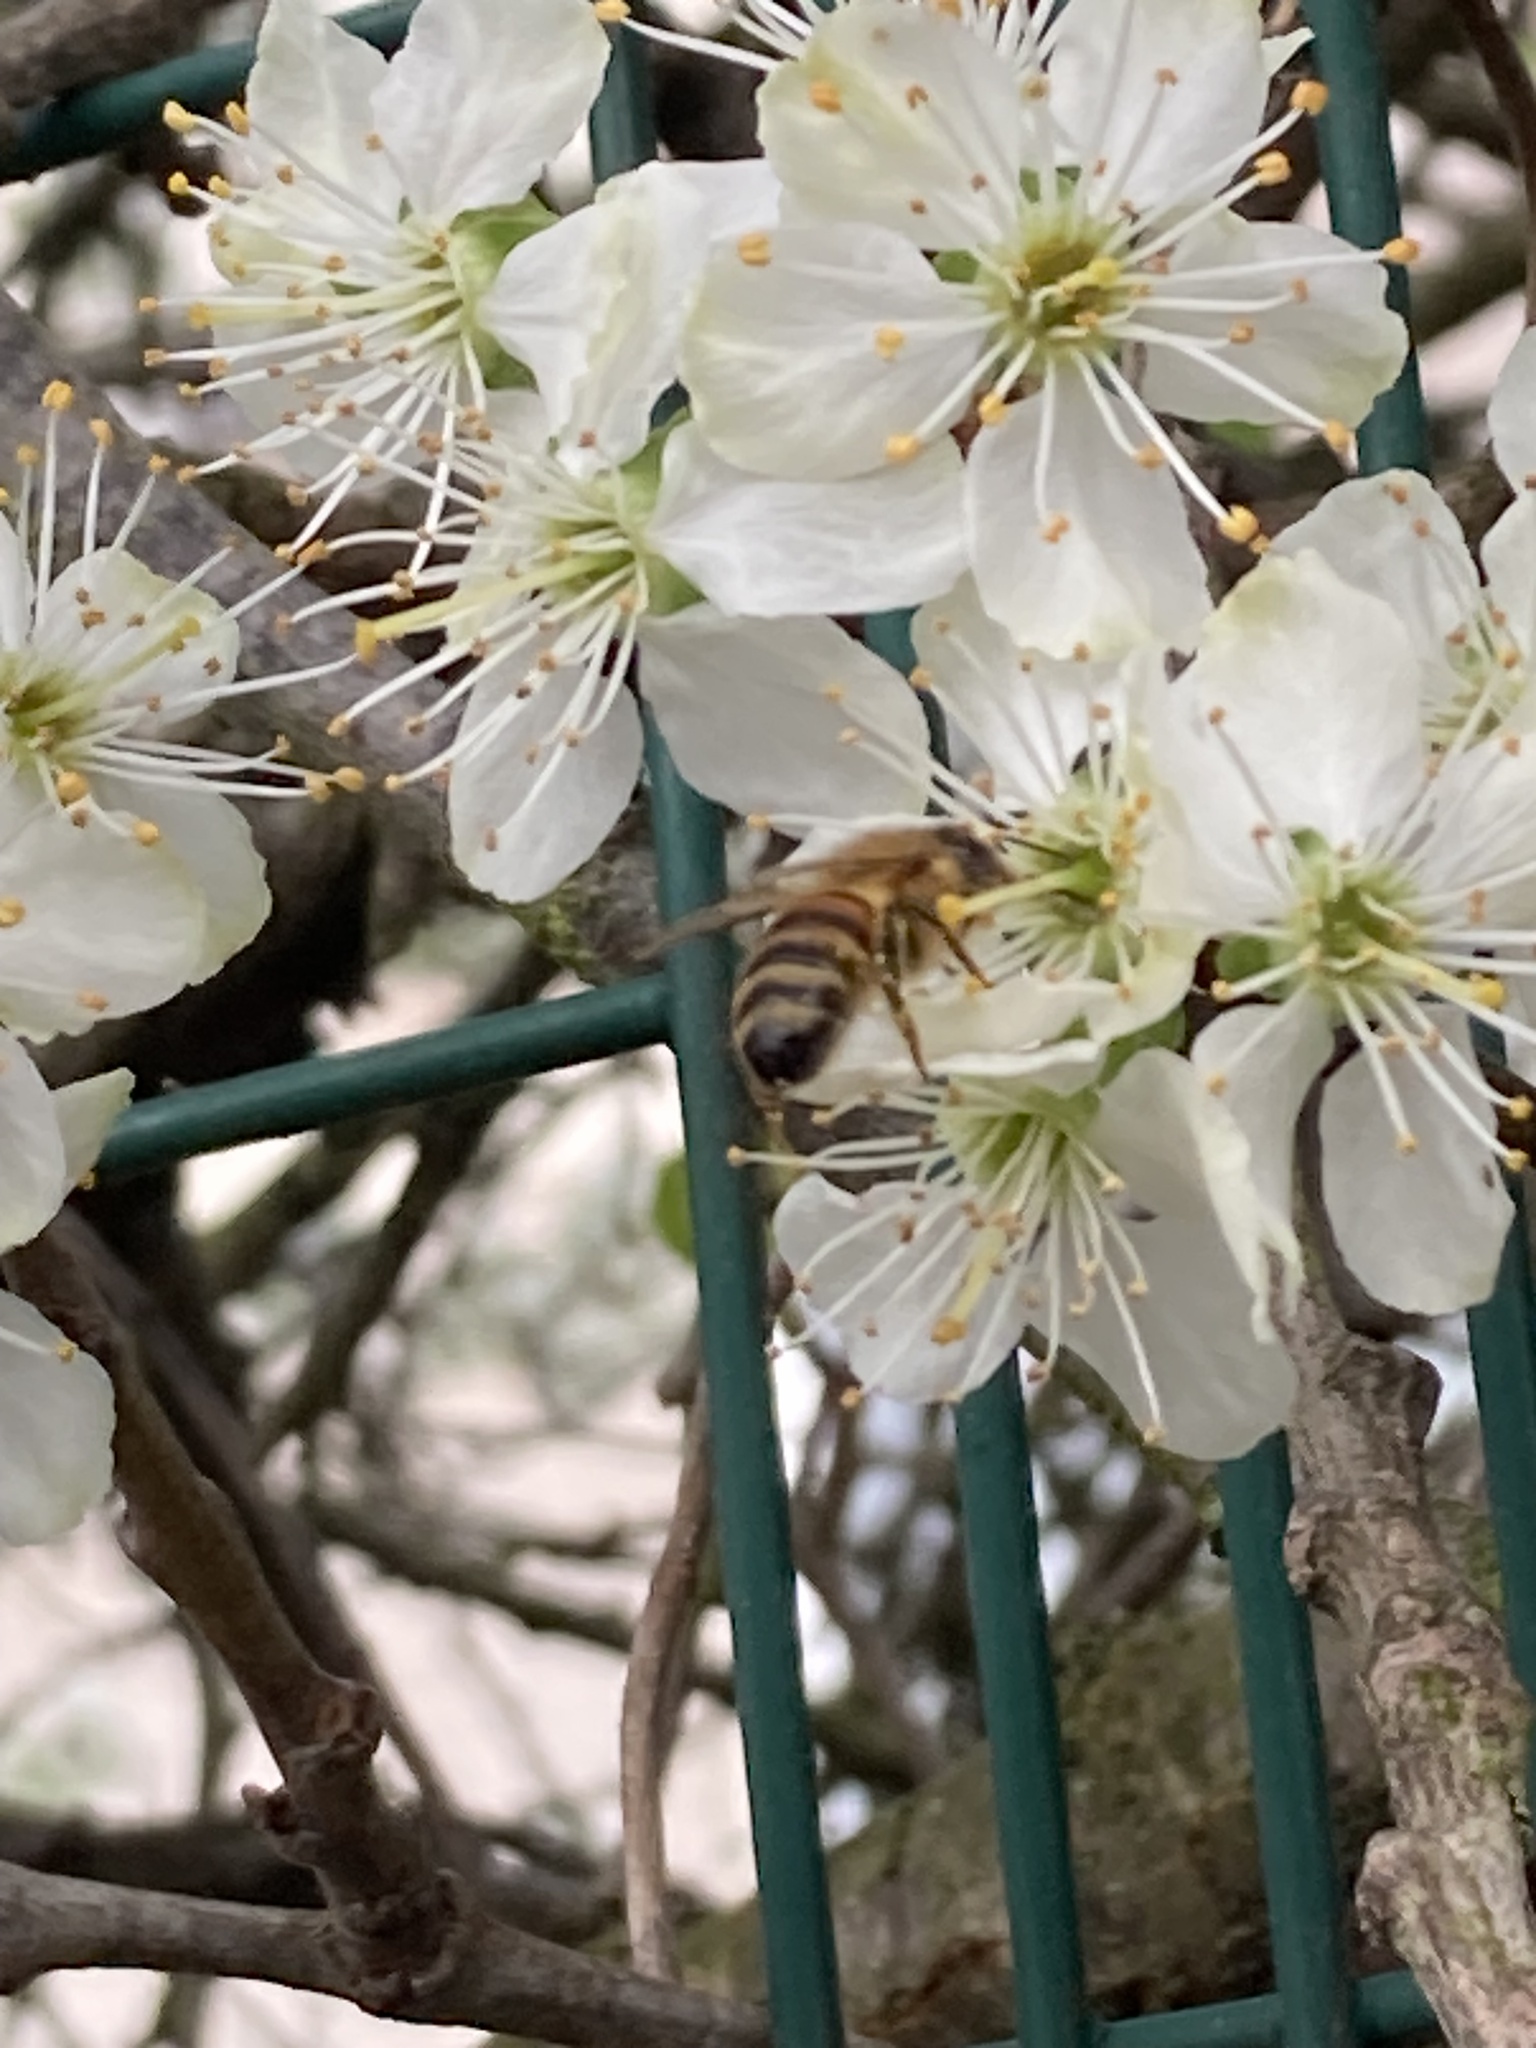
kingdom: Animalia
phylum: Arthropoda
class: Insecta
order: Hymenoptera
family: Apidae
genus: Apis
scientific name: Apis mellifera
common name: Honey bee
